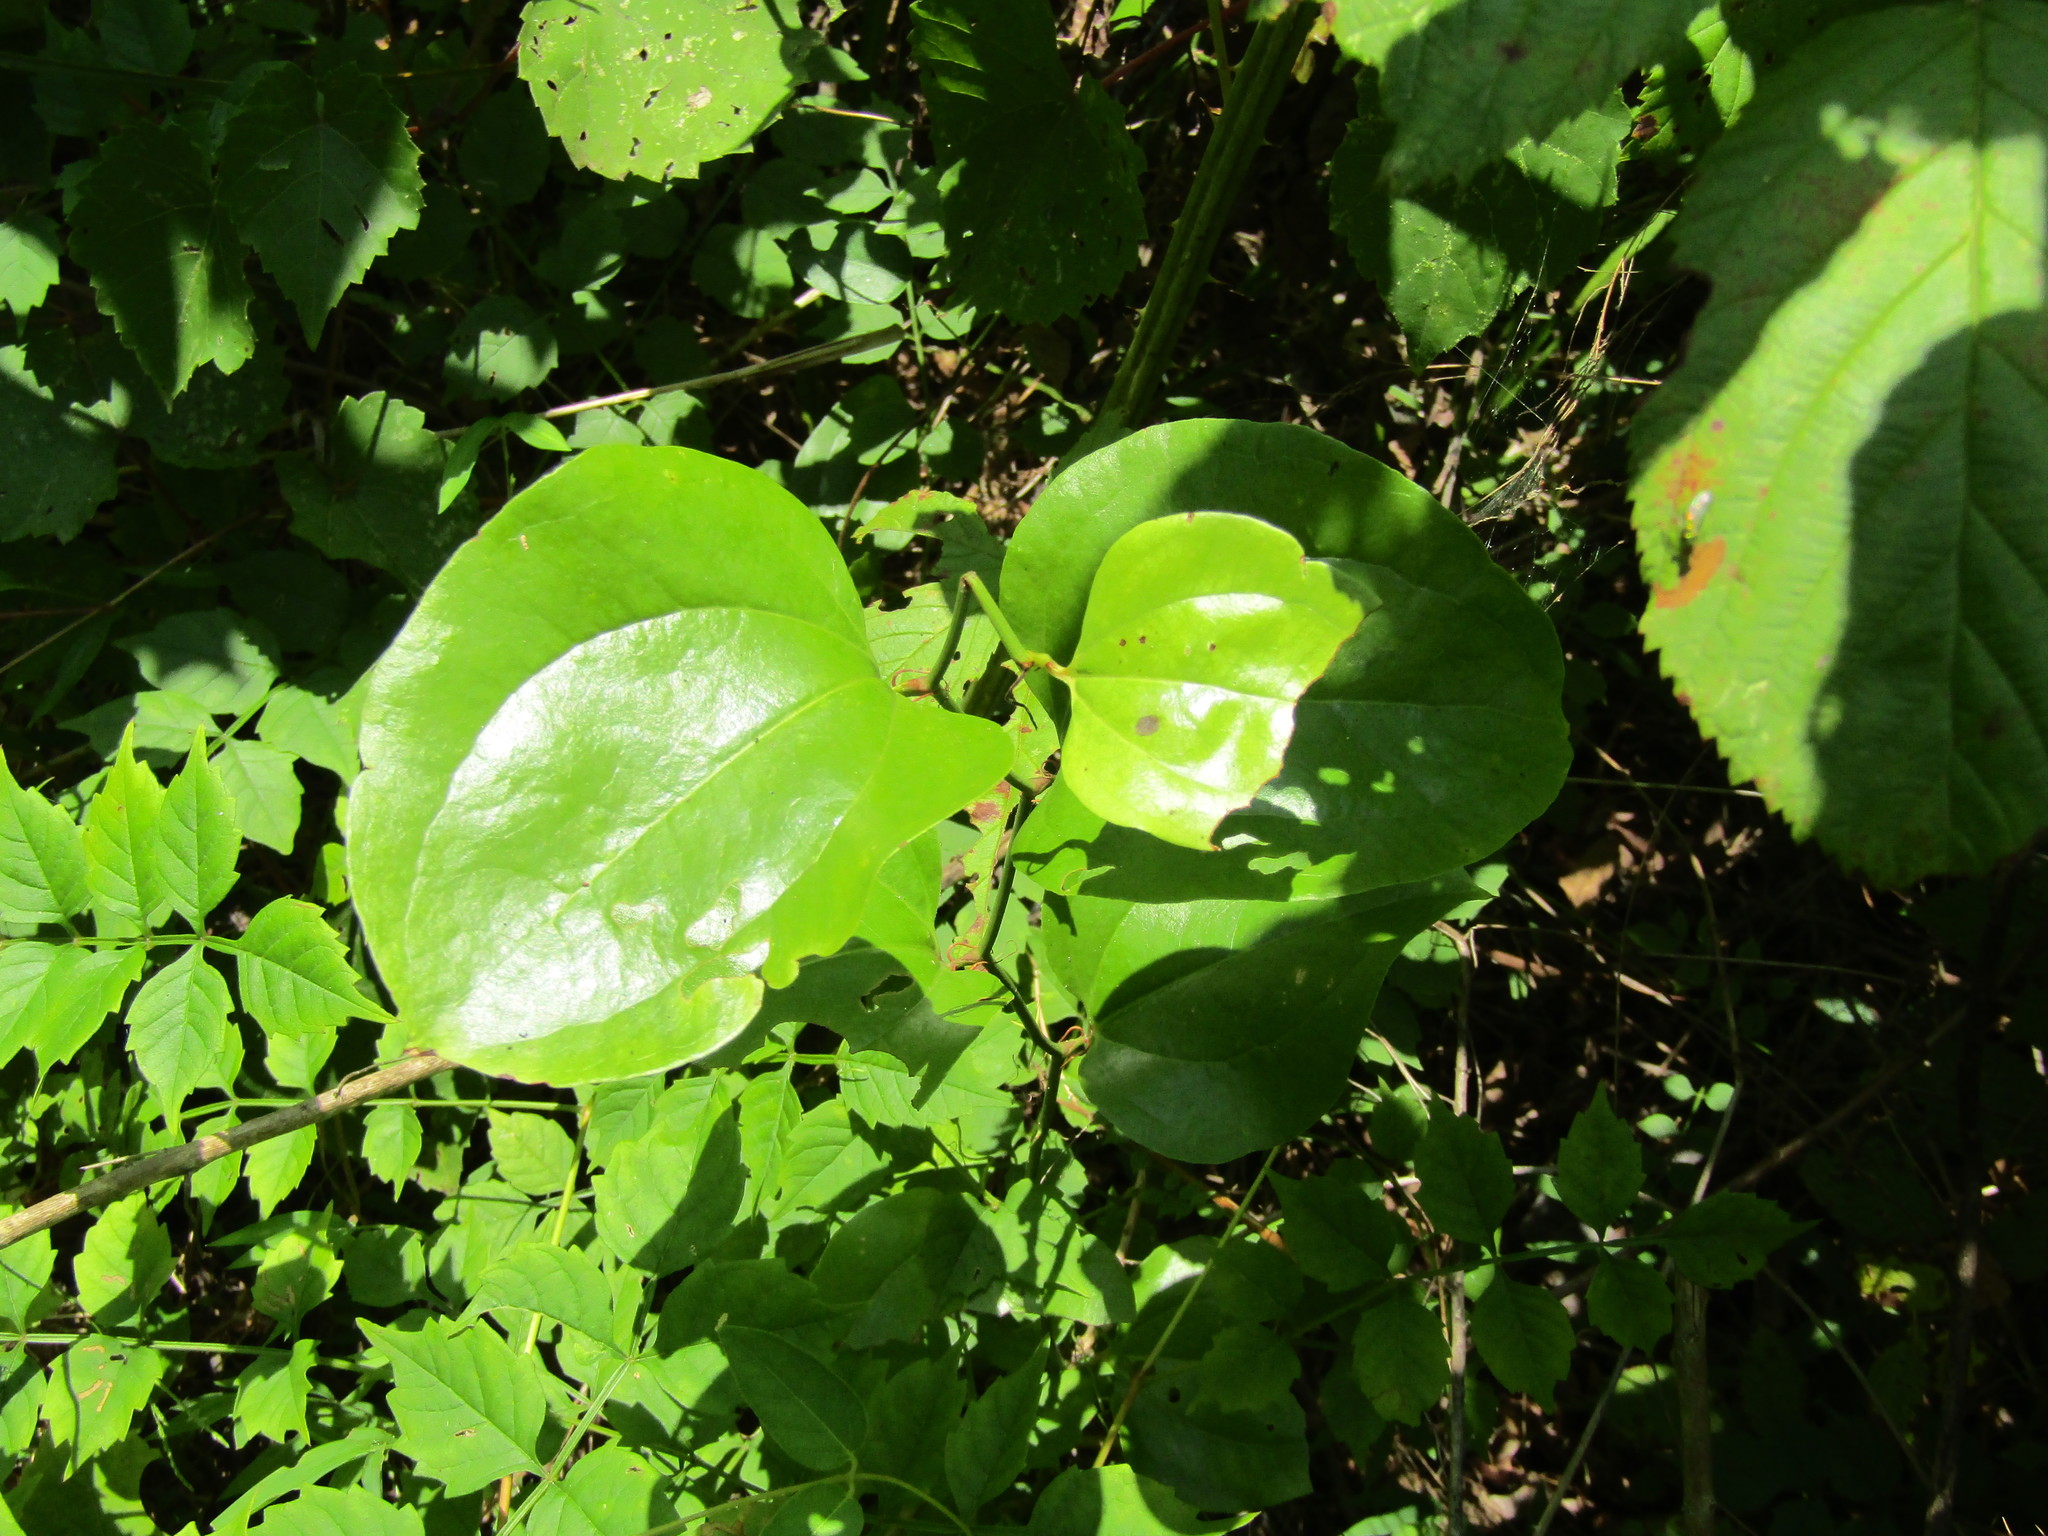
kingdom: Plantae
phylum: Tracheophyta
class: Liliopsida
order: Liliales
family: Smilacaceae
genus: Smilax
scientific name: Smilax rotundifolia
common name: Bullbriar
